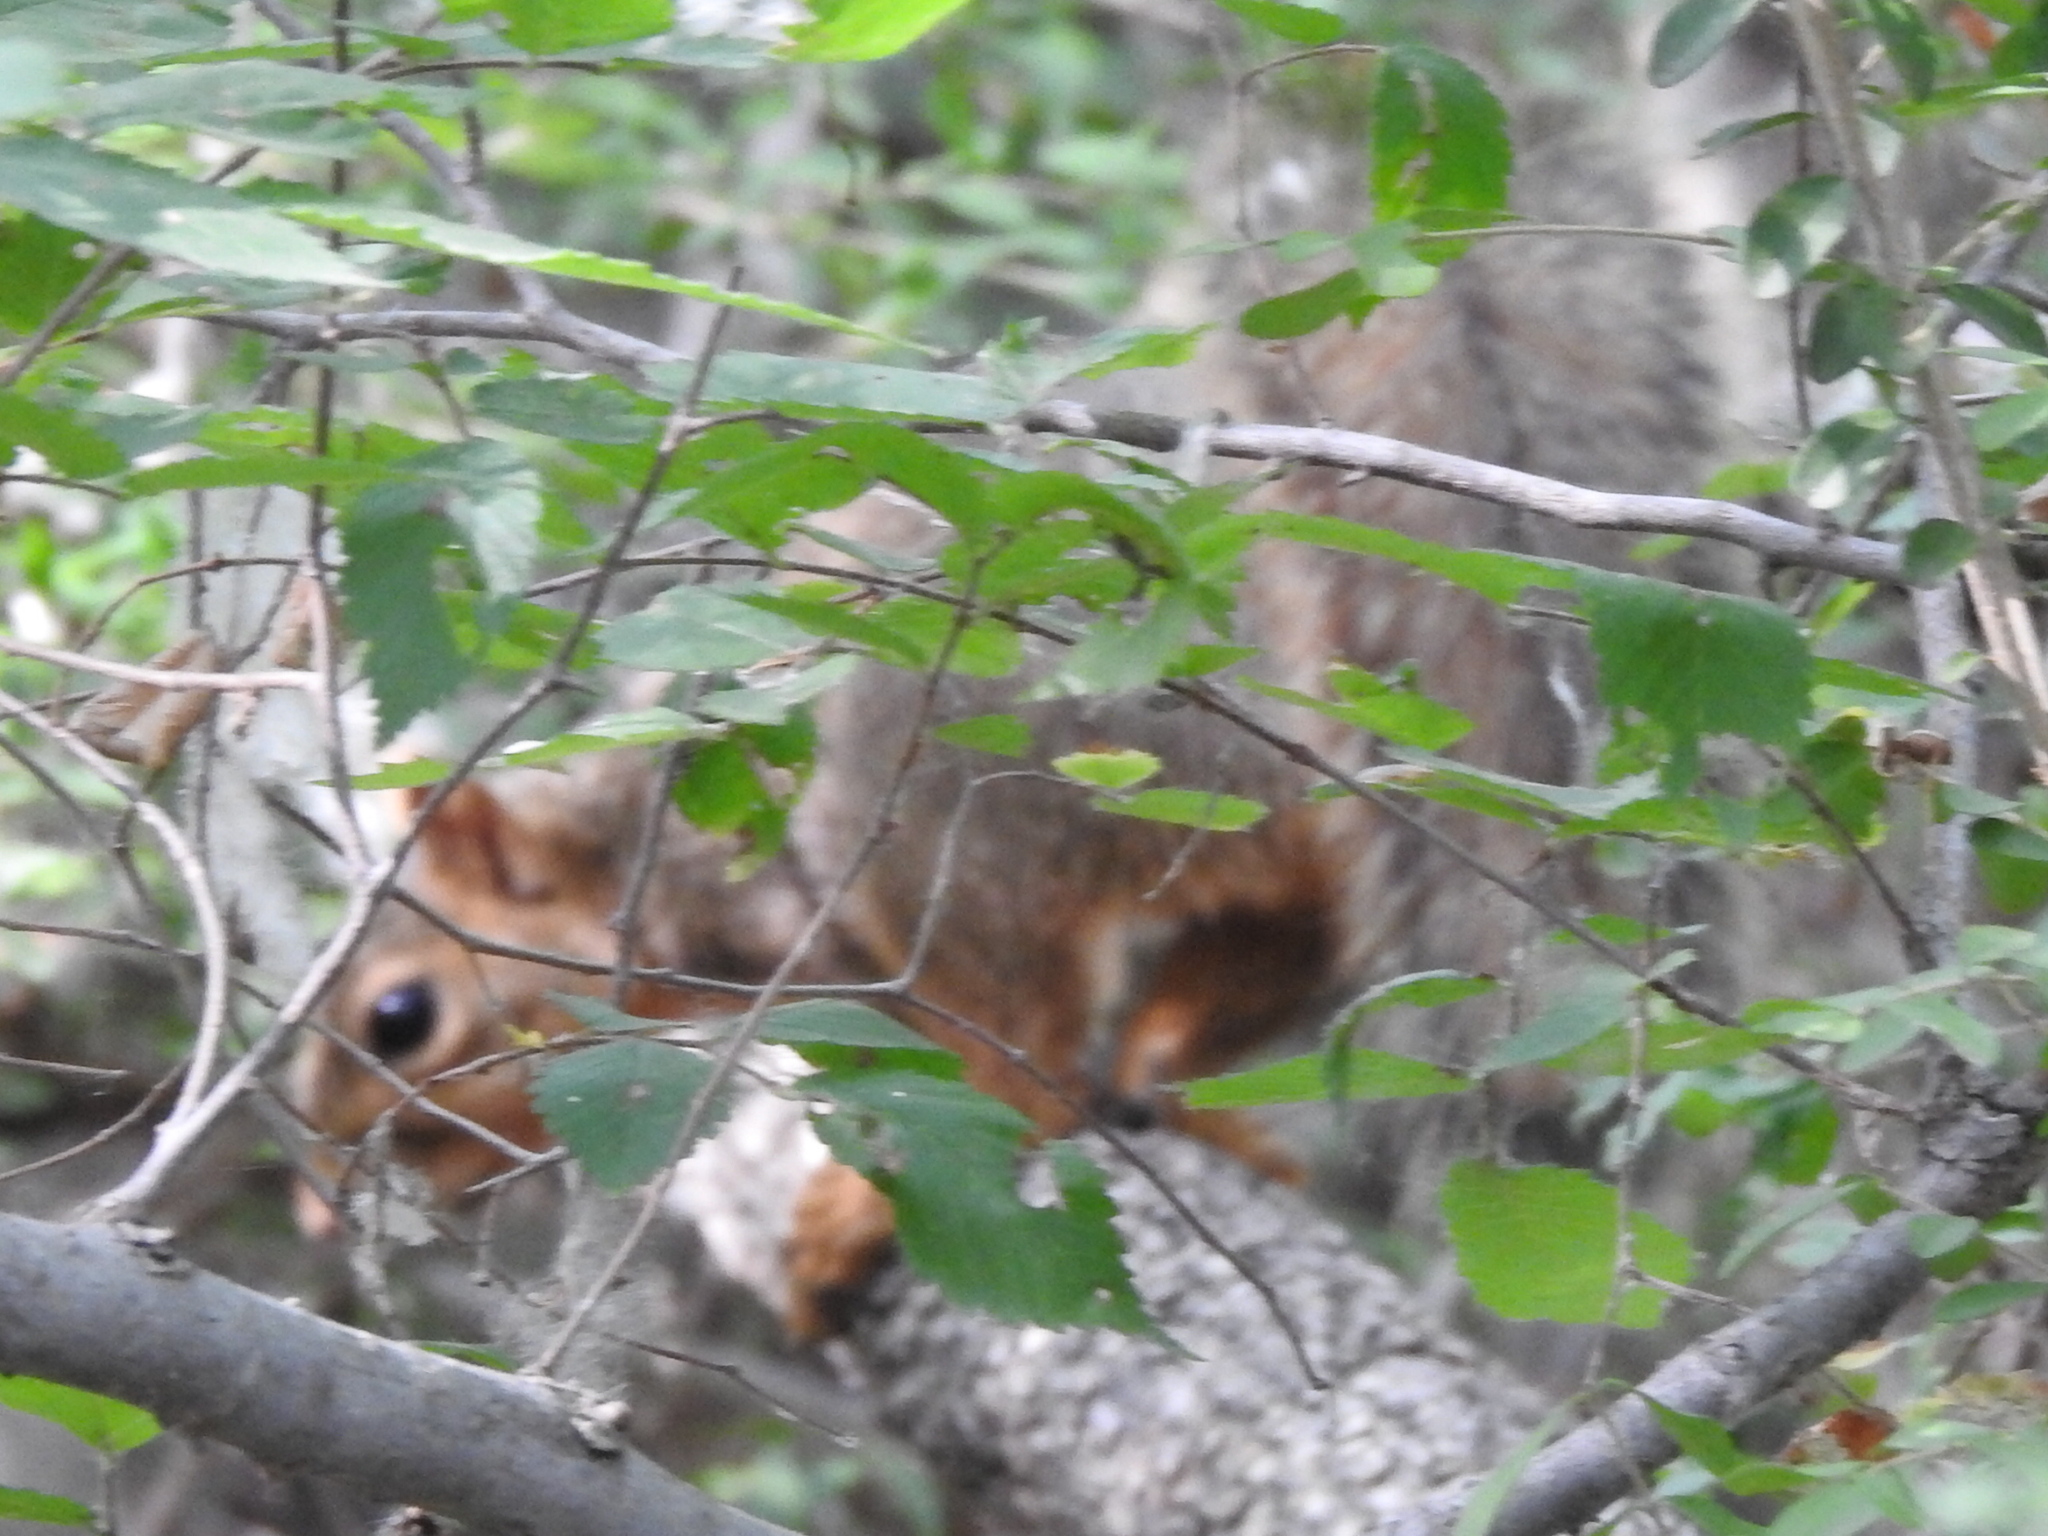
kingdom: Animalia
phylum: Chordata
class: Mammalia
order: Rodentia
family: Sciuridae
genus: Sciurus
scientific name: Sciurus niger
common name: Fox squirrel
